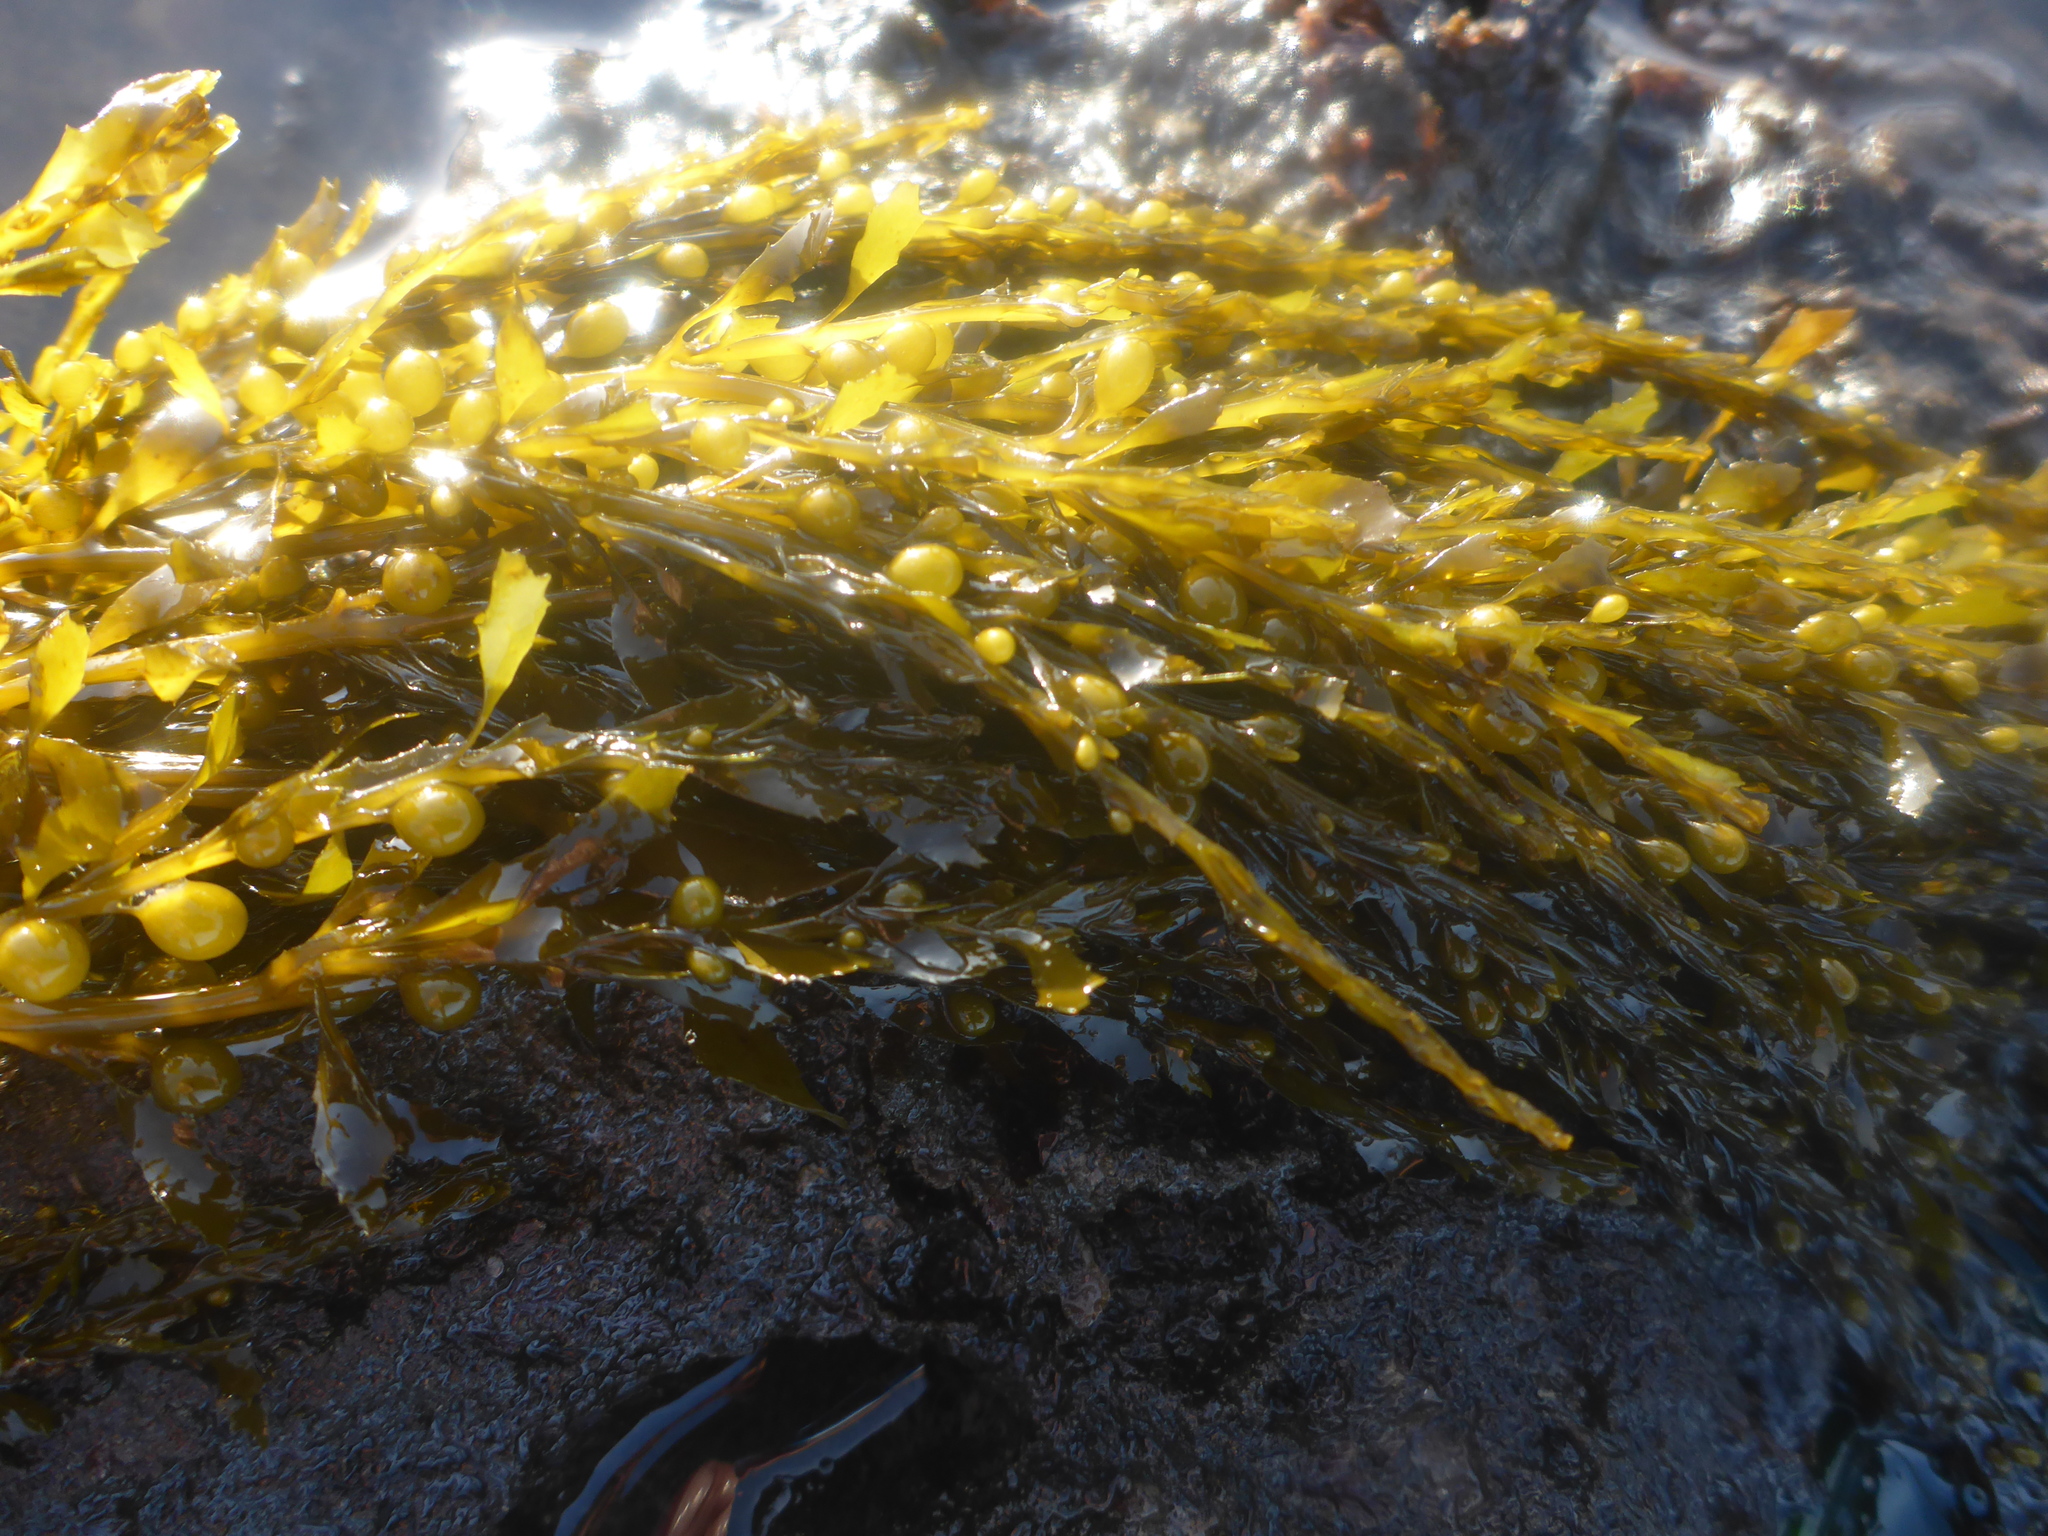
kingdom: Chromista
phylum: Ochrophyta
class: Phaeophyceae
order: Fucales
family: Sargassaceae
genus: Sargassum
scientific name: Sargassum muticum
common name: Japweed
